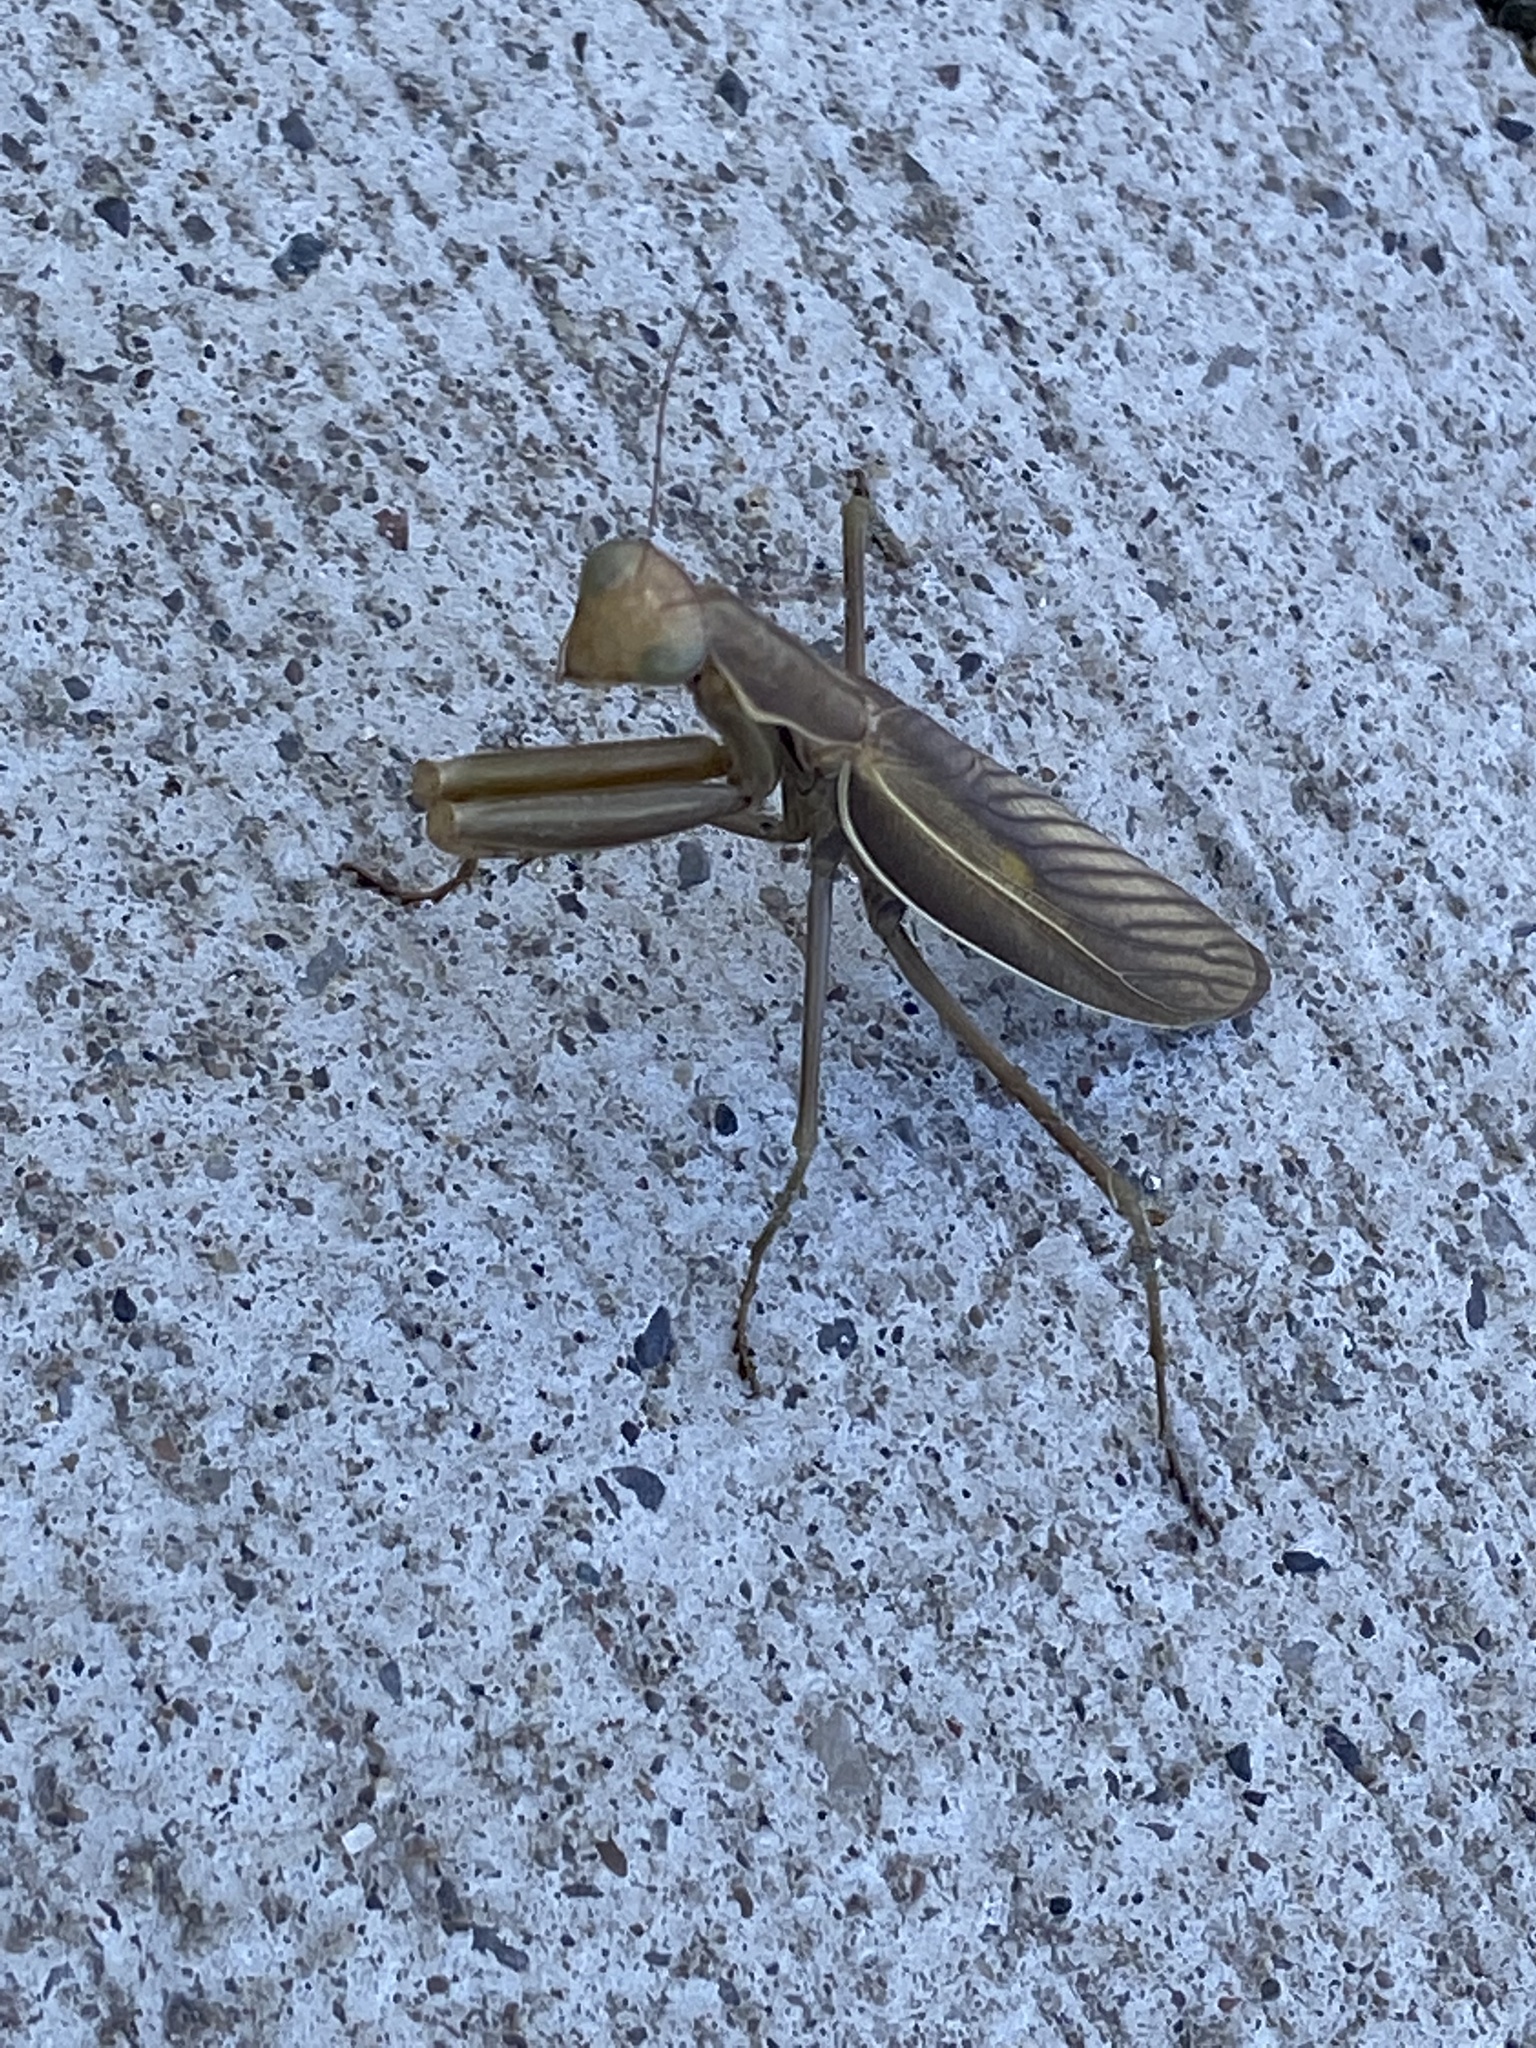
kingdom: Animalia
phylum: Arthropoda
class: Insecta
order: Mantodea
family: Mantidae
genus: Mantis
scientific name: Mantis religiosa
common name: Praying mantis
